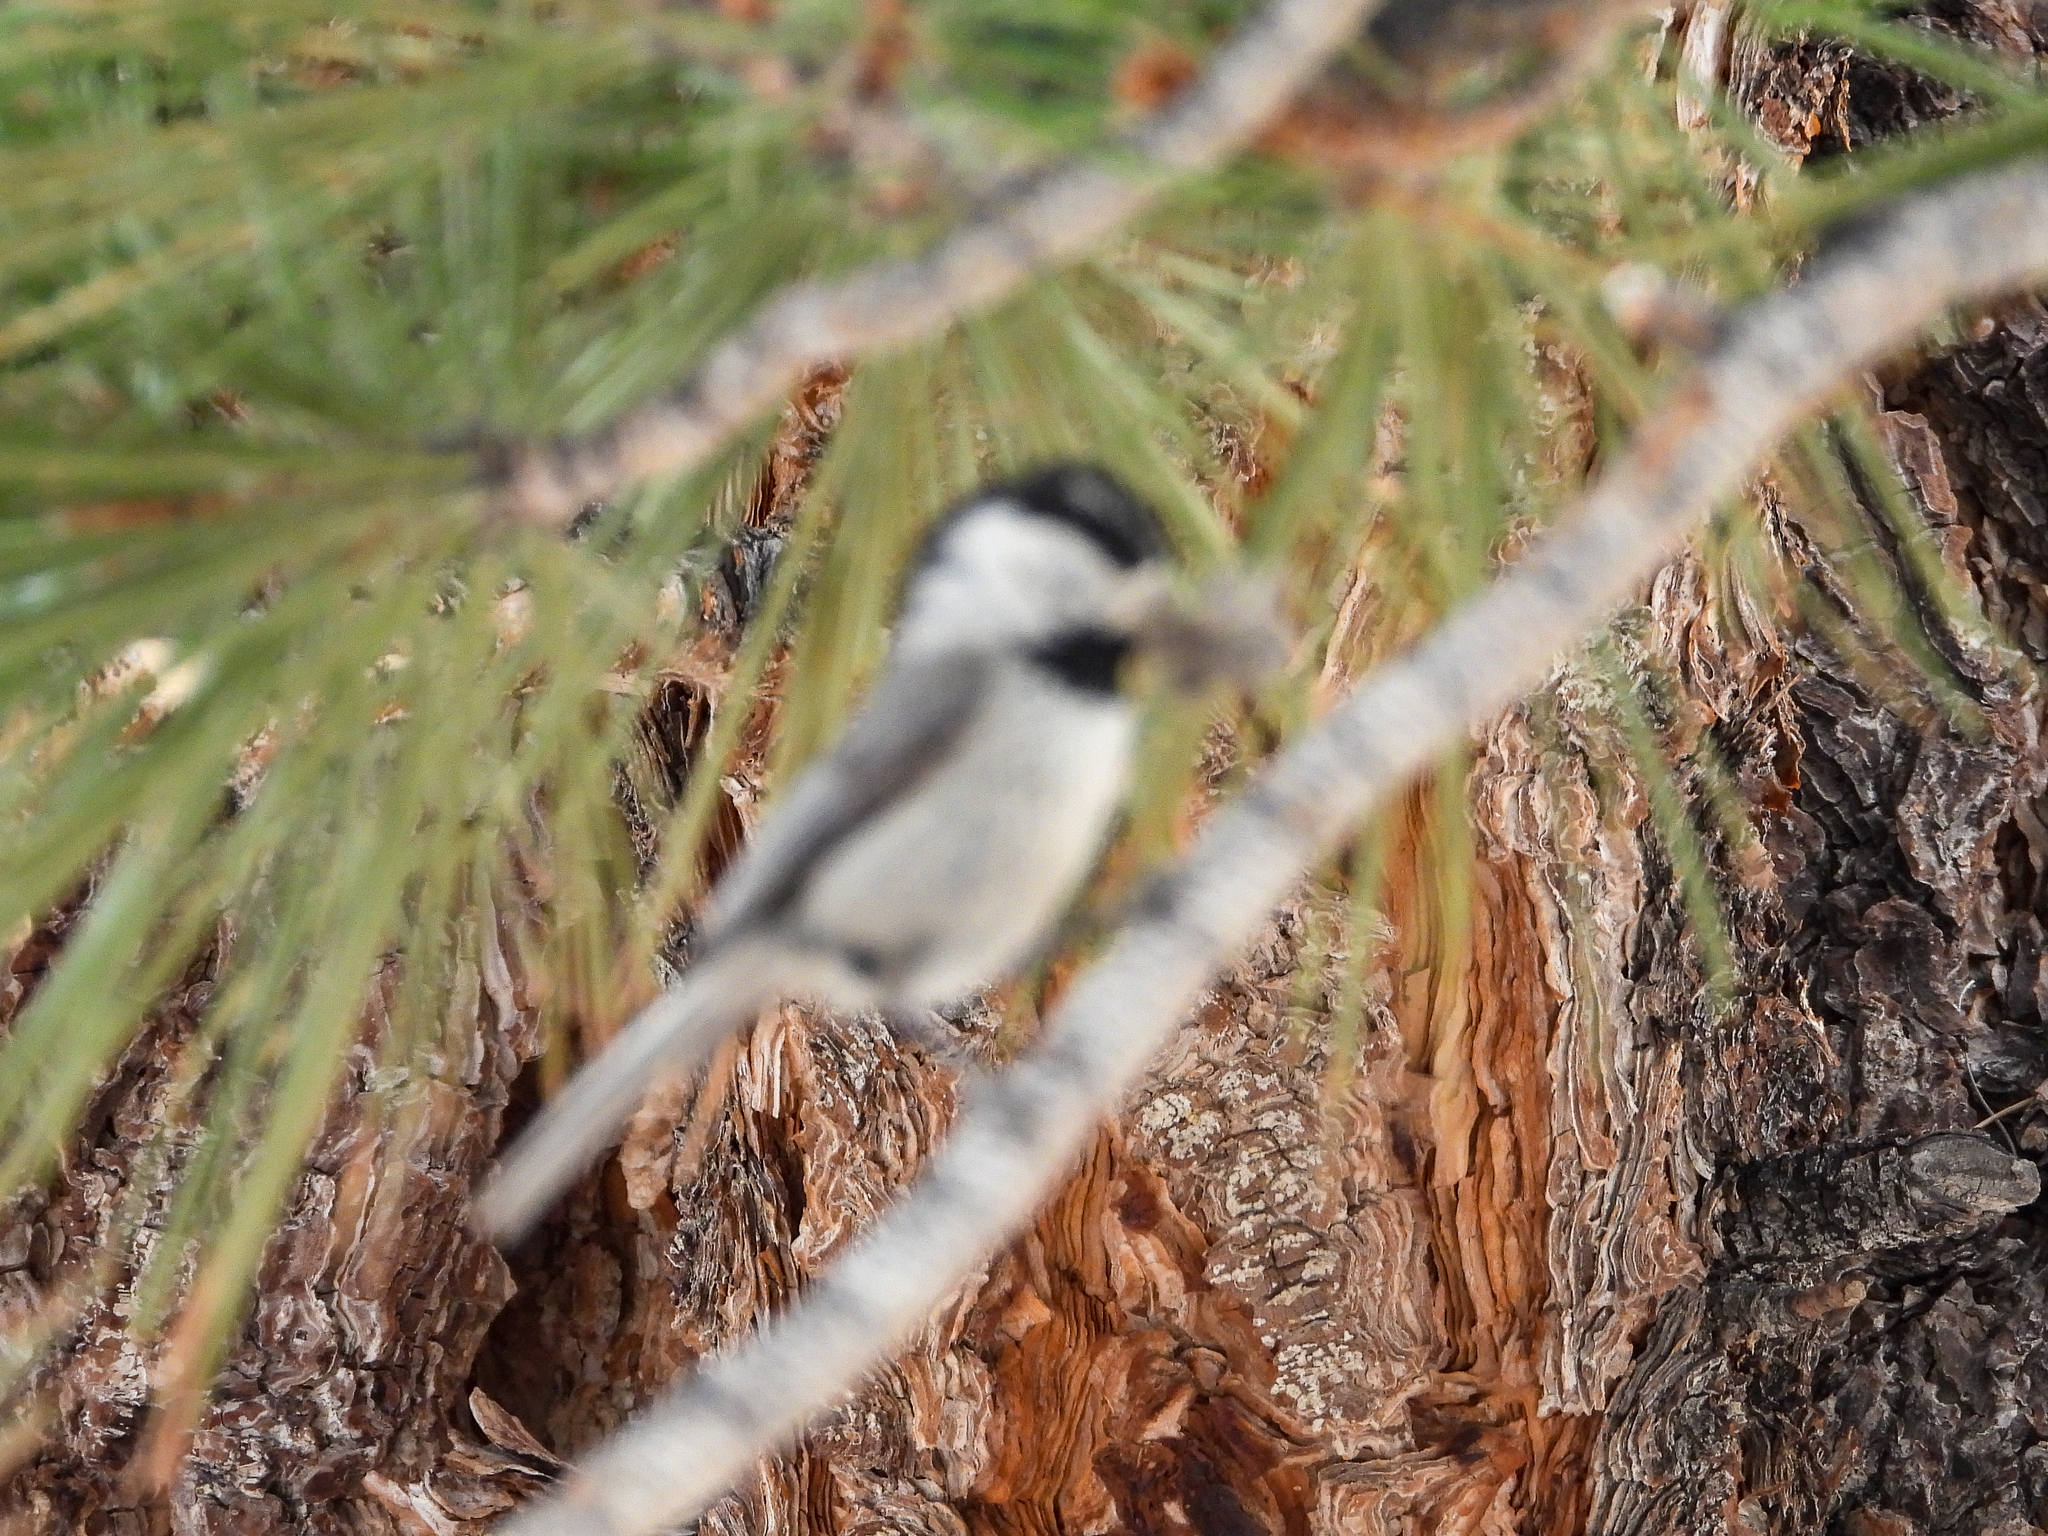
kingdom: Animalia
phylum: Chordata
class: Aves
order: Passeriformes
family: Paridae
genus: Poecile
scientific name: Poecile gambeli
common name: Mountain chickadee
